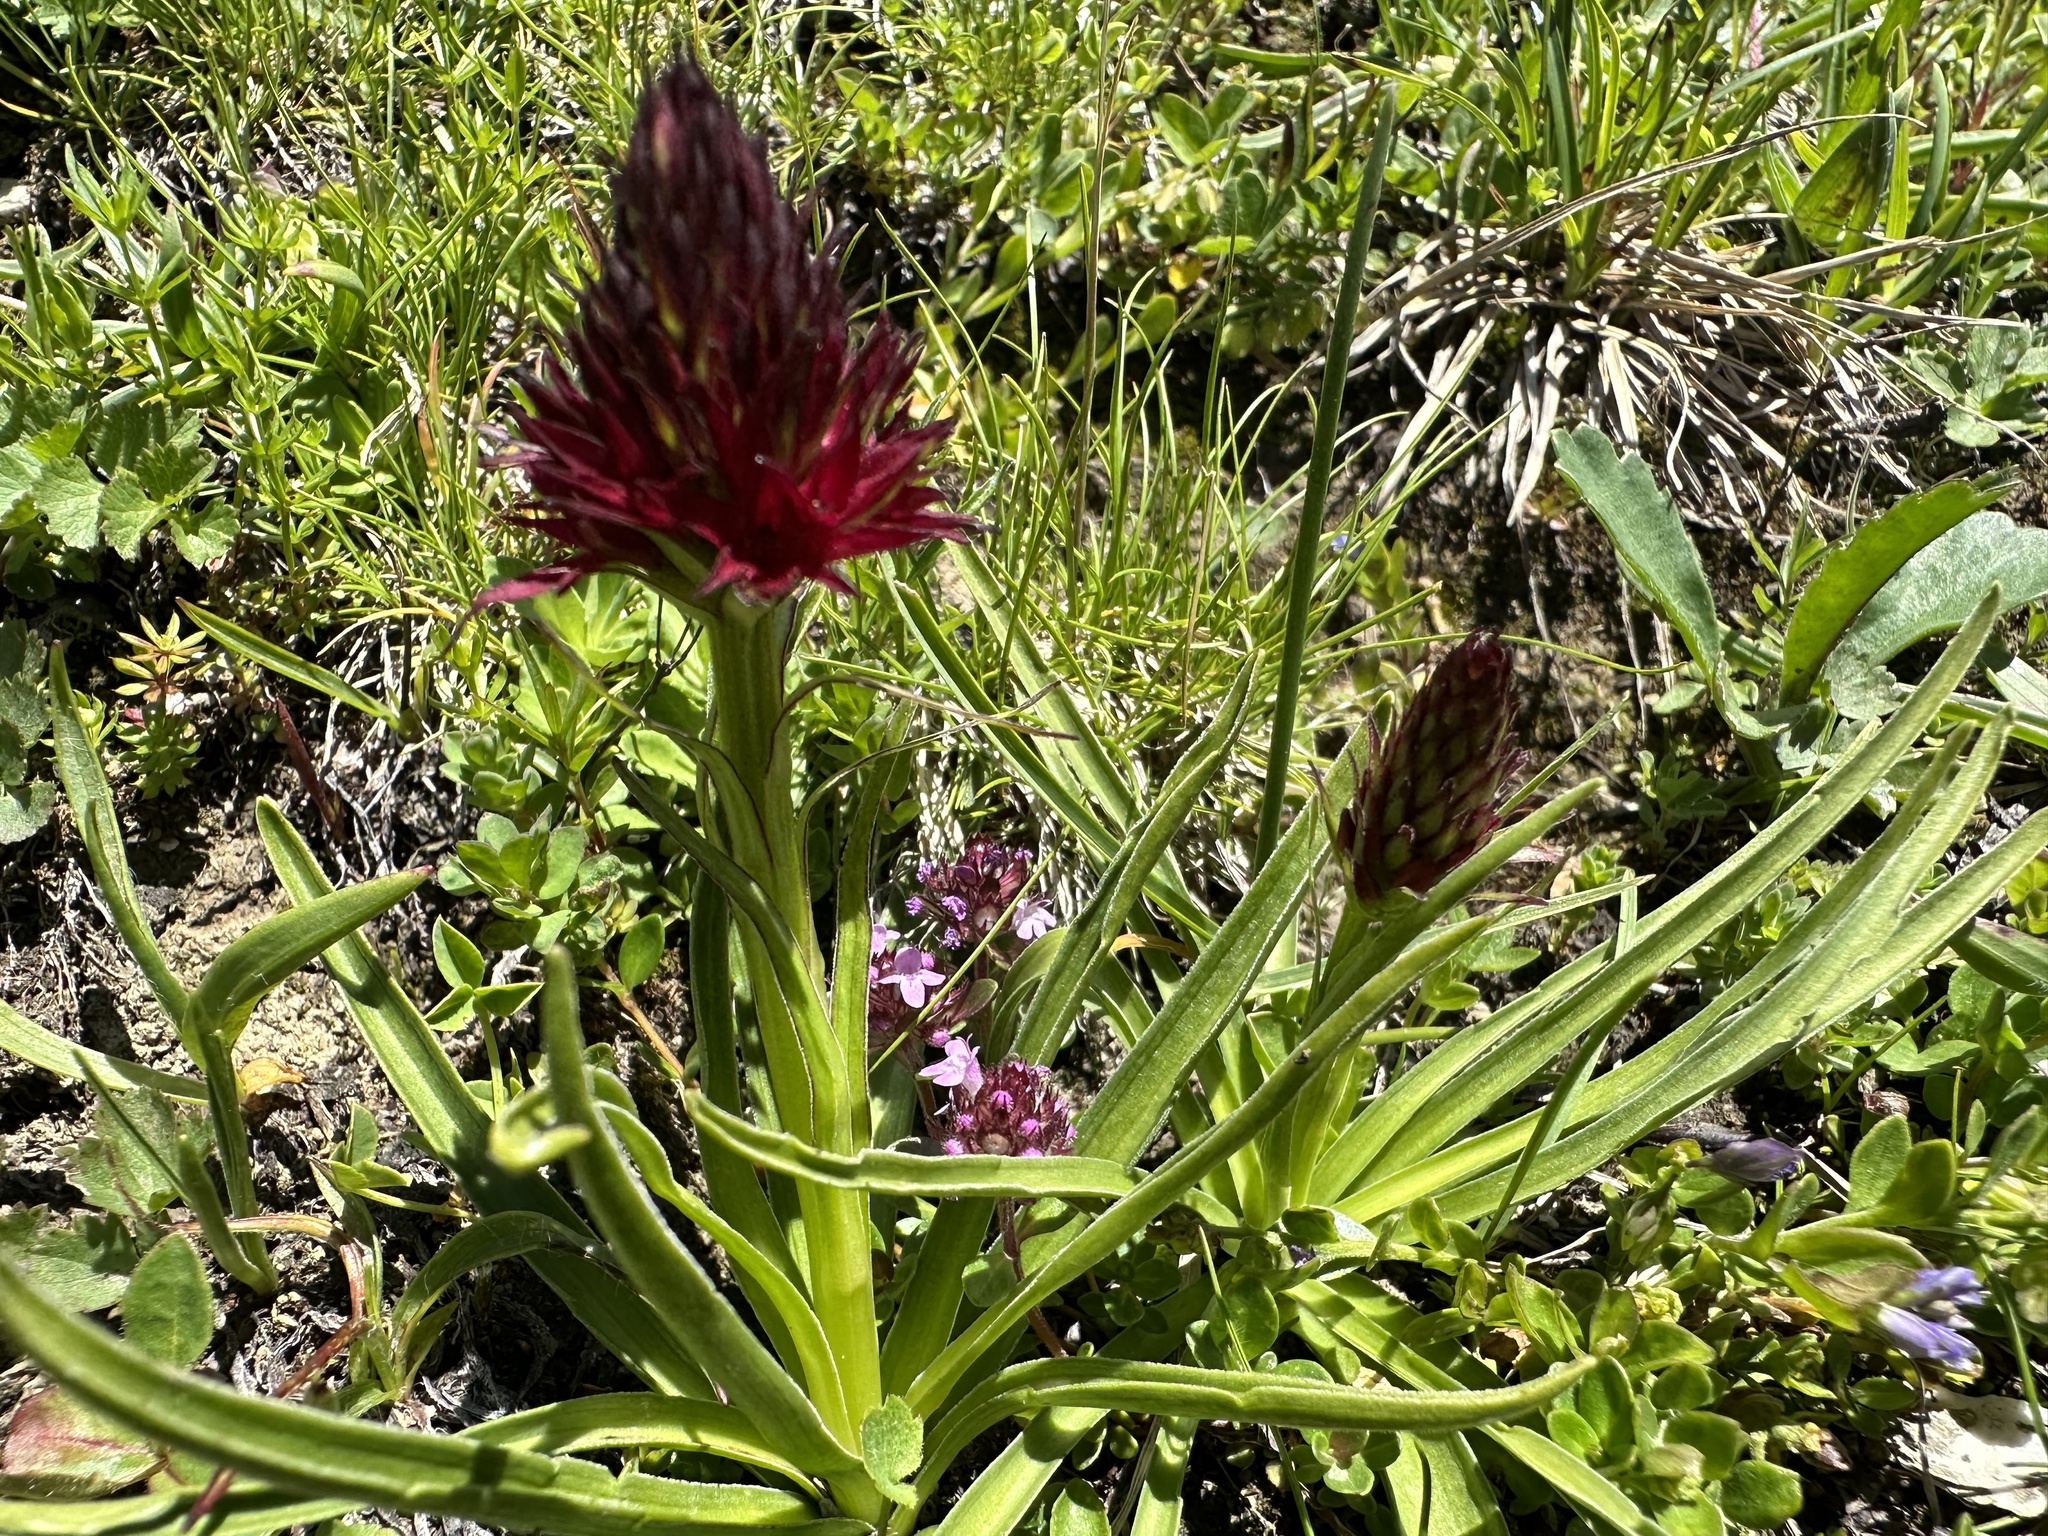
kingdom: Plantae
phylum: Tracheophyta
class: Liliopsida
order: Asparagales
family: Orchidaceae
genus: Gymnadenia
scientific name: Gymnadenia rhellicani
